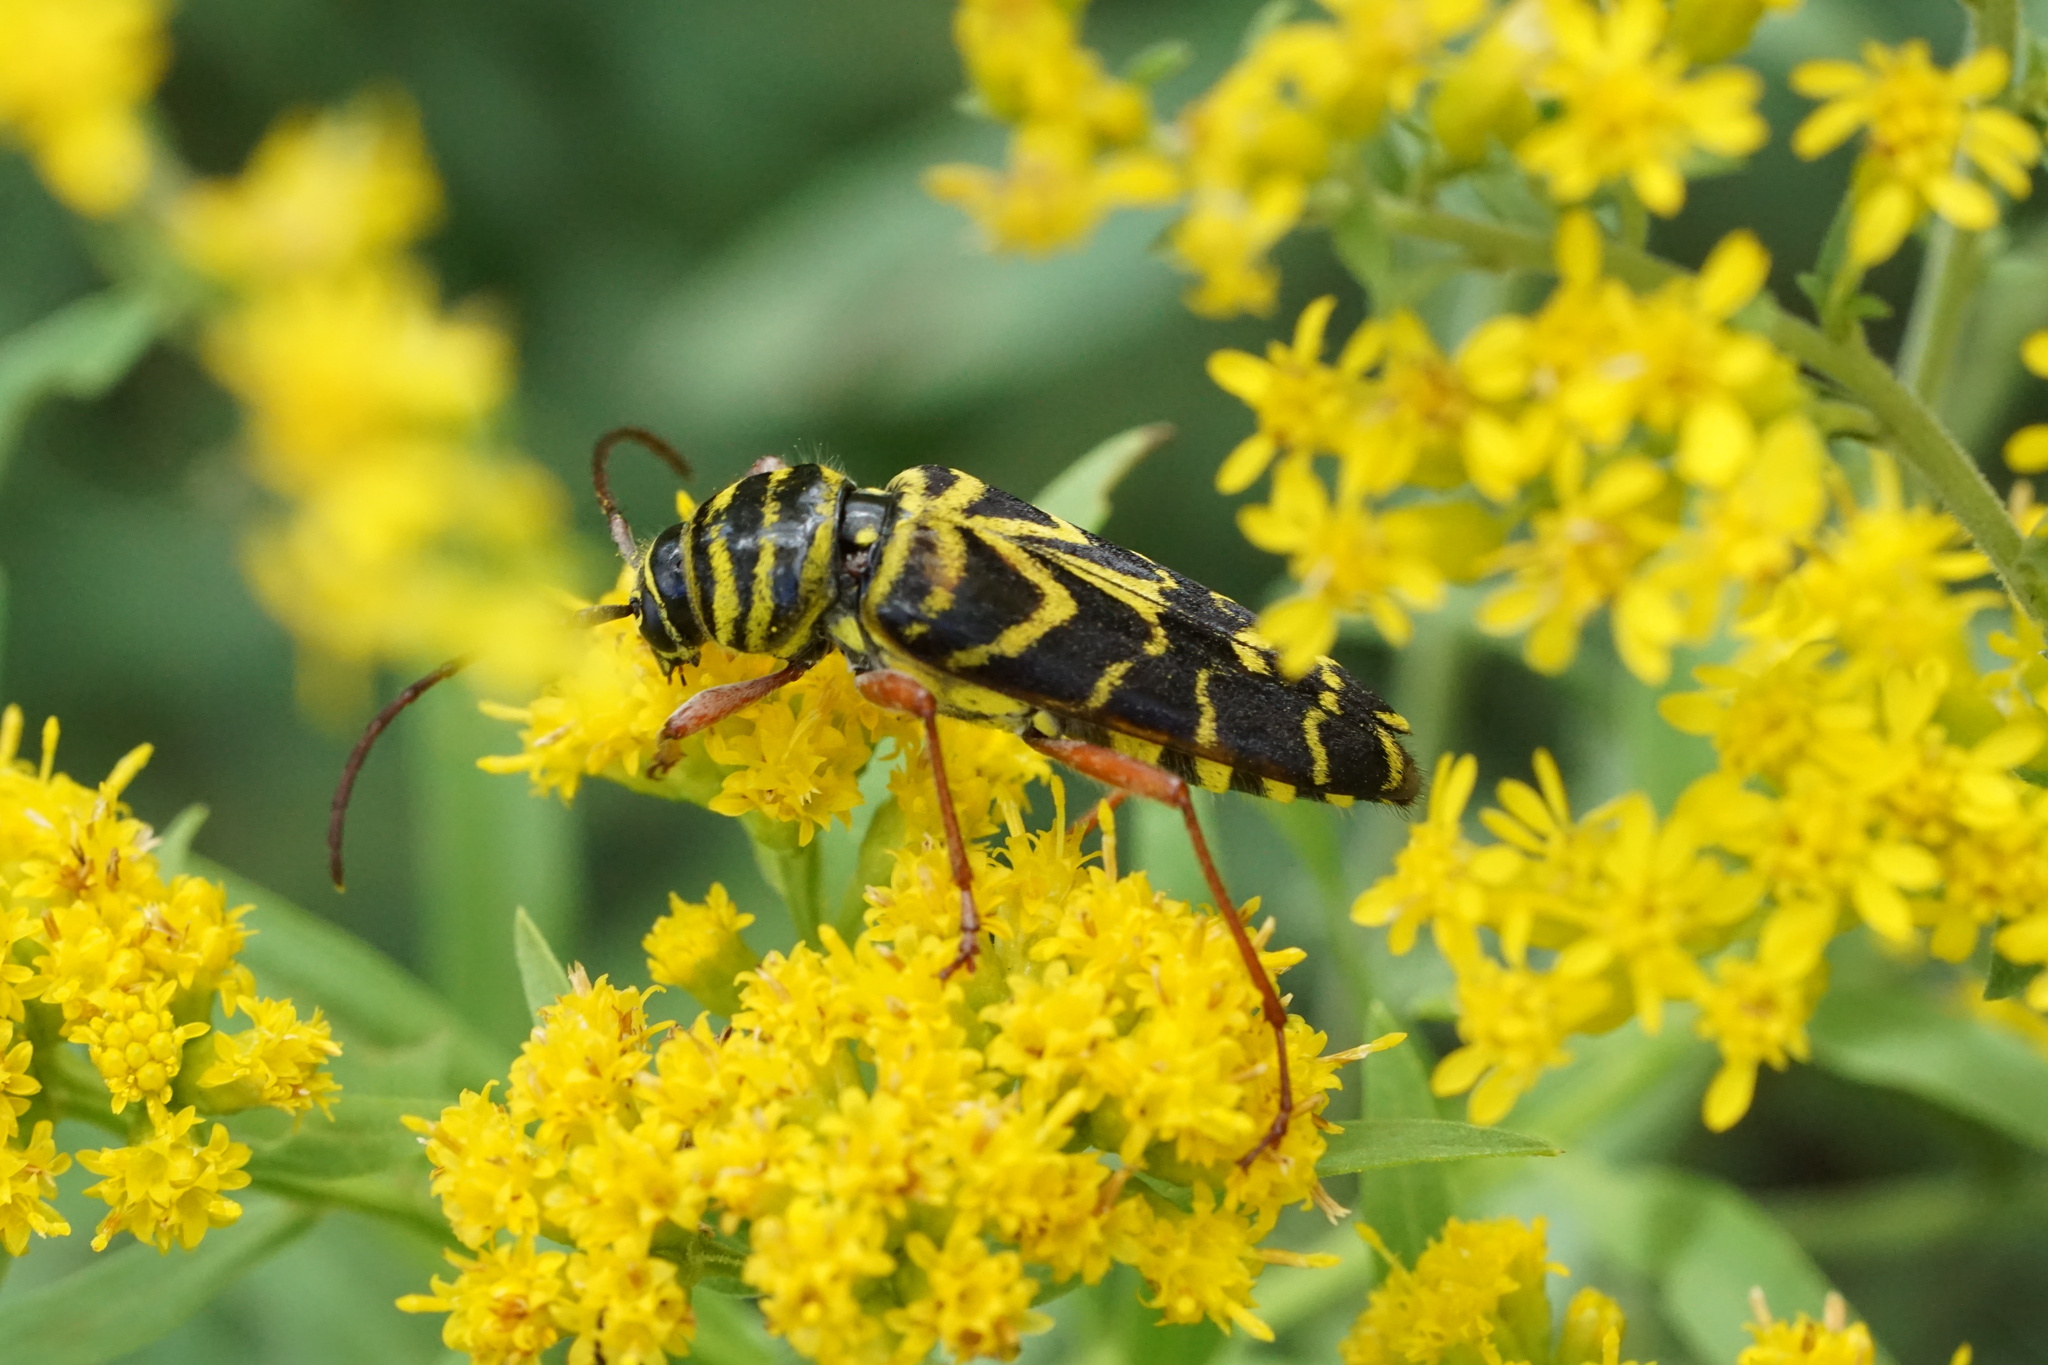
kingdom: Animalia
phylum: Arthropoda
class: Insecta
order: Coleoptera
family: Cerambycidae
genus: Megacyllene
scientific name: Megacyllene robiniae
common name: Locust borer
